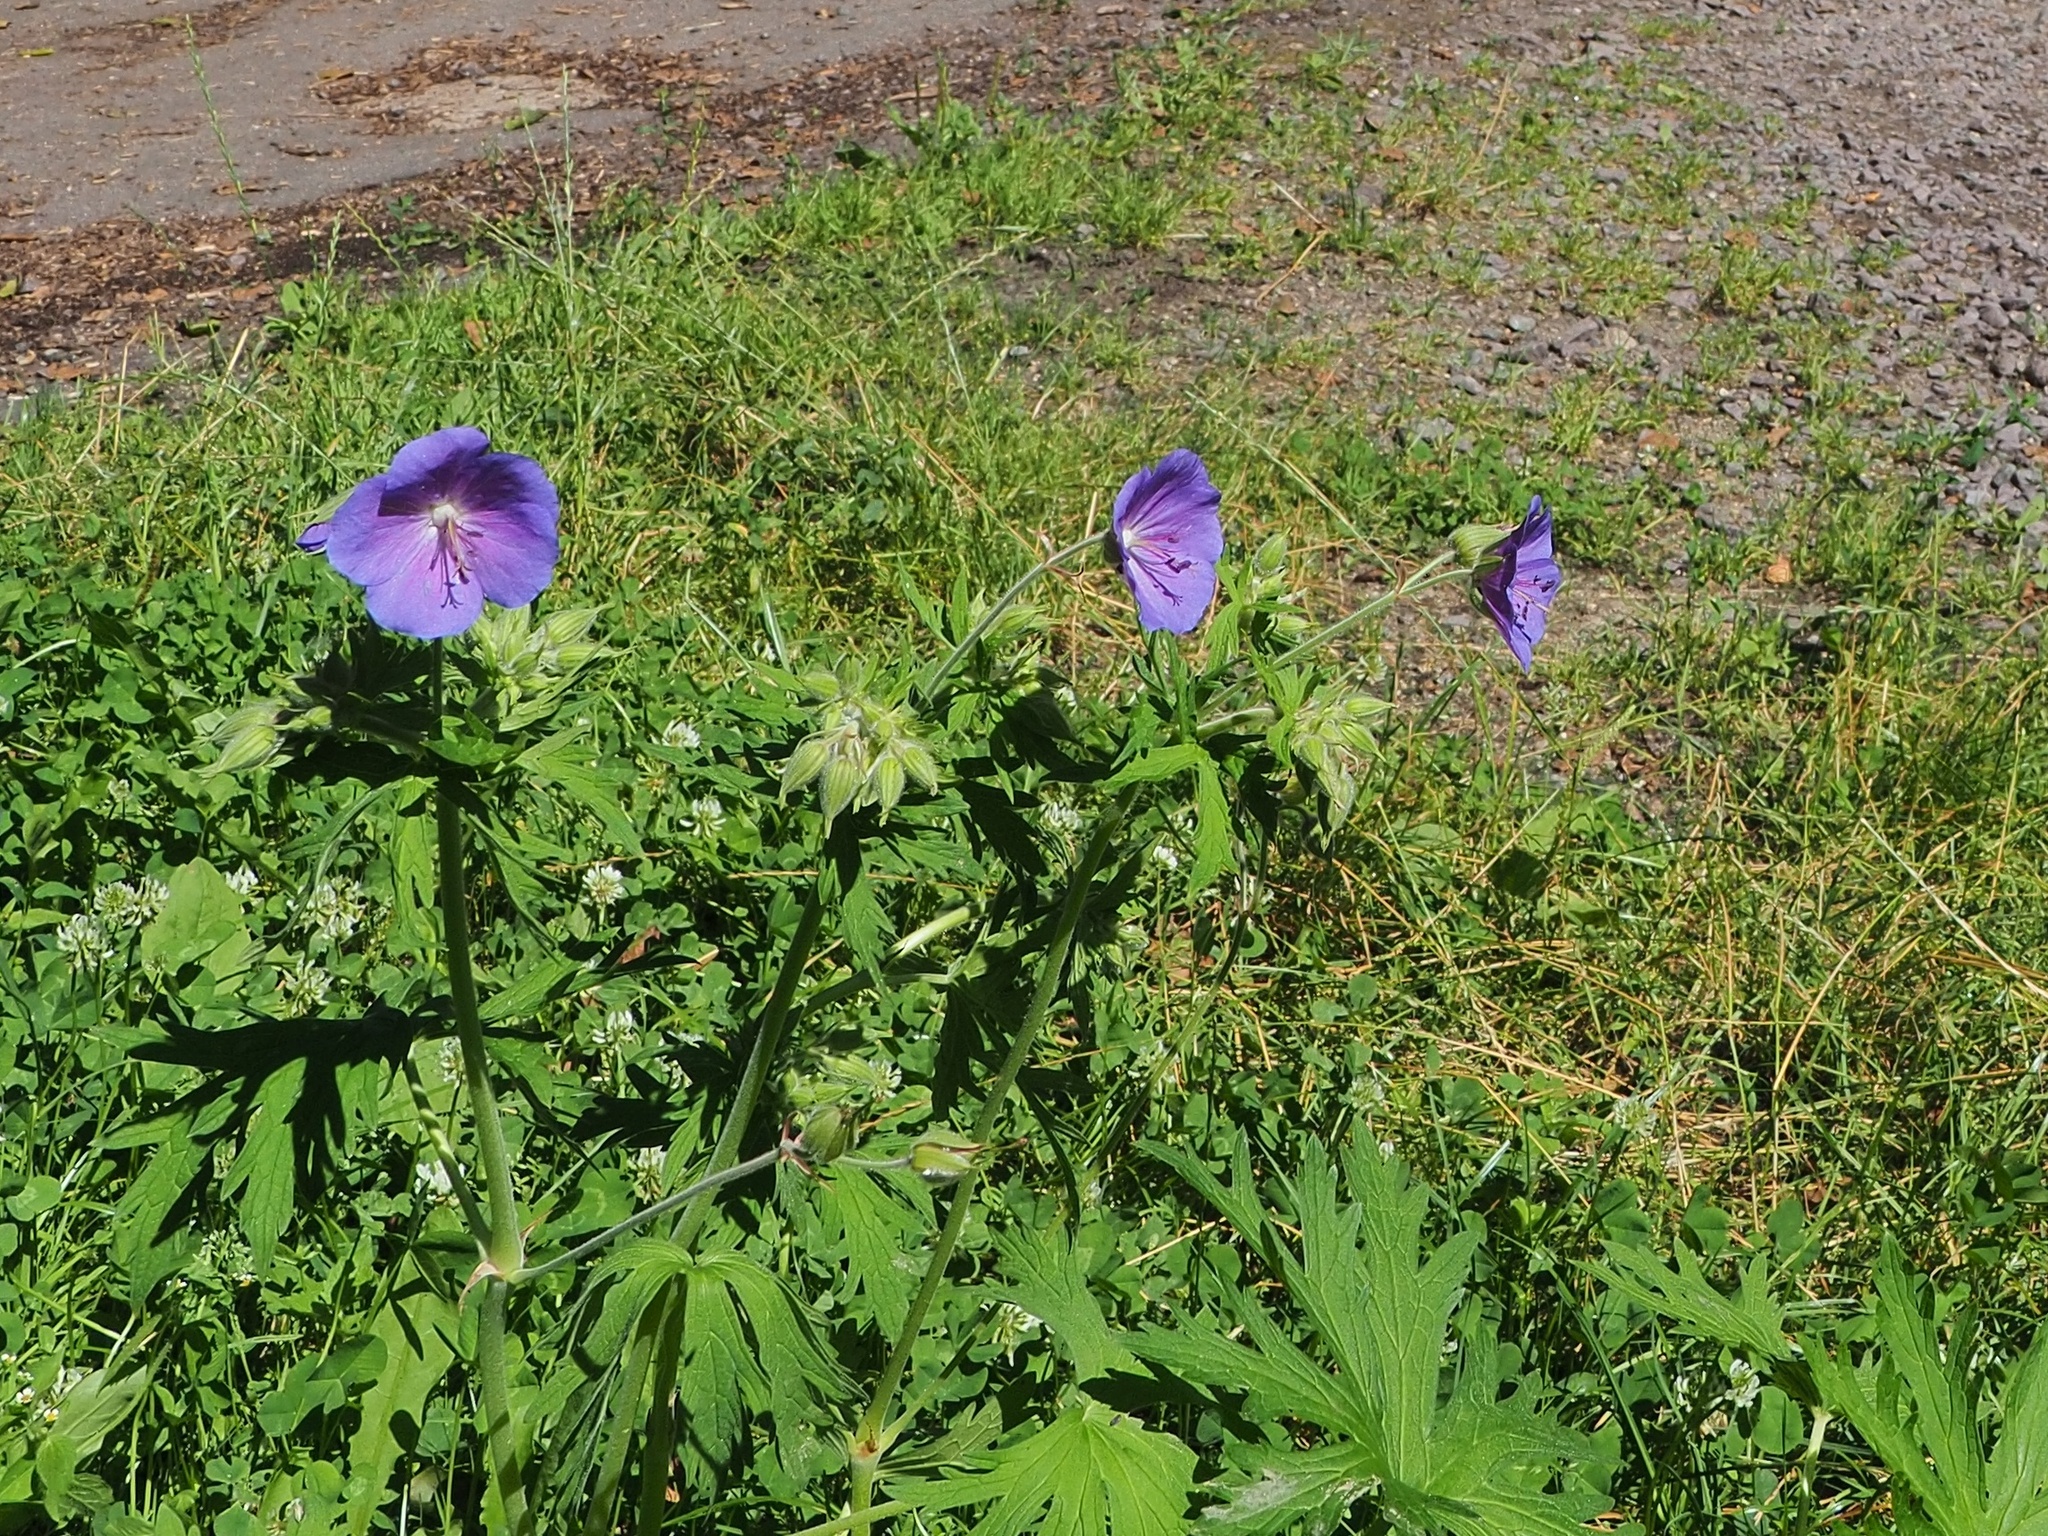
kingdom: Plantae
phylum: Tracheophyta
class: Magnoliopsida
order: Geraniales
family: Geraniaceae
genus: Geranium
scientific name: Geranium pratense
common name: Meadow crane's-bill
